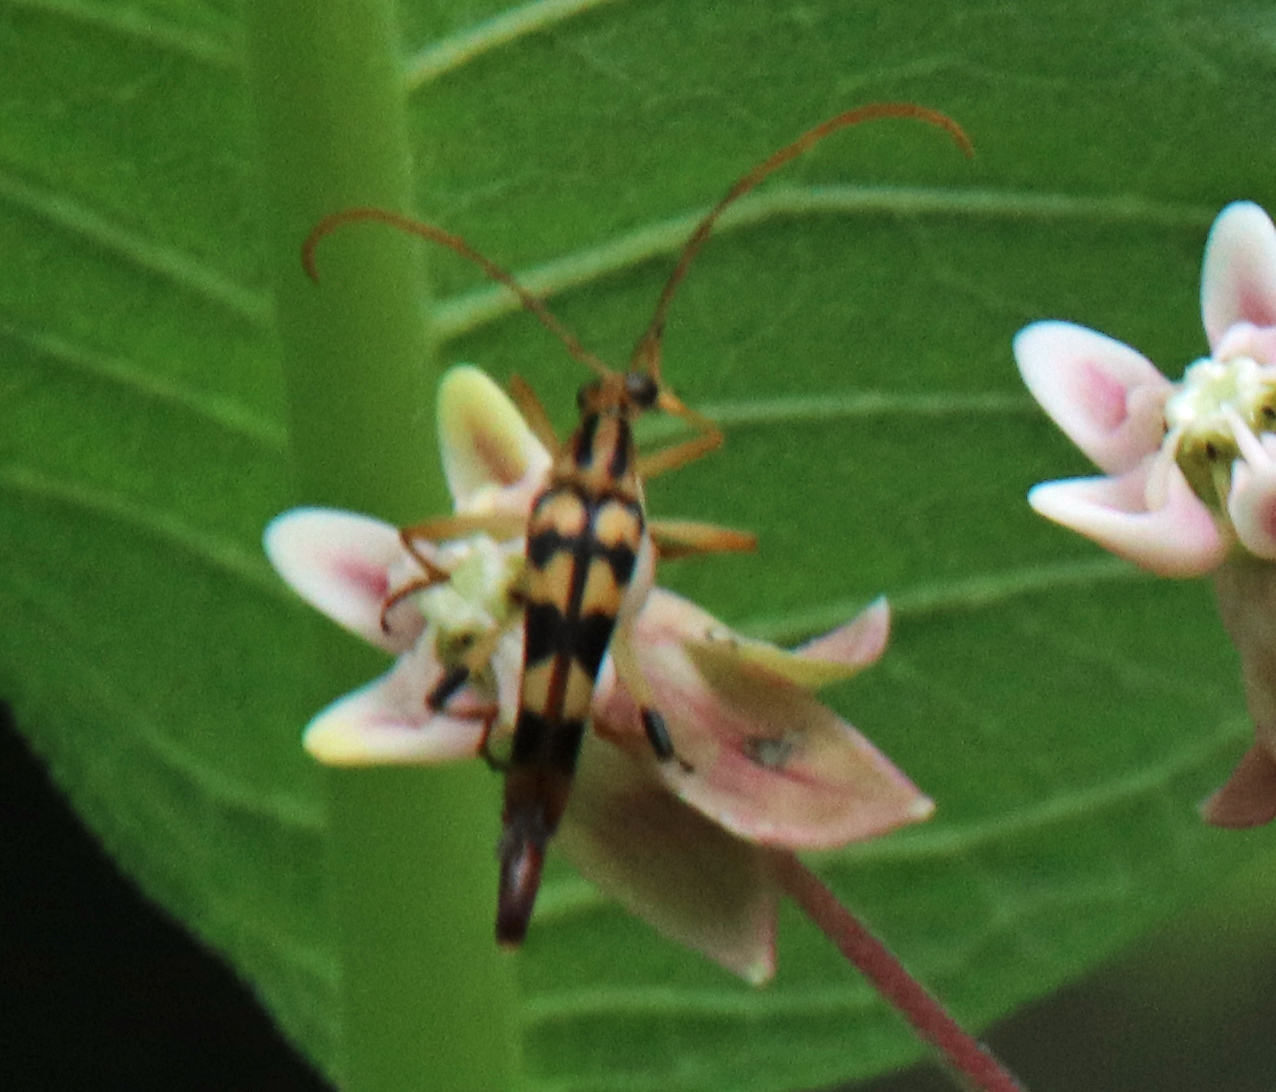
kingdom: Animalia
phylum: Arthropoda
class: Insecta
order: Coleoptera
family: Cerambycidae
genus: Strangalia
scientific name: Strangalia luteicornis
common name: Yellow-horned flower longhorn beetle
